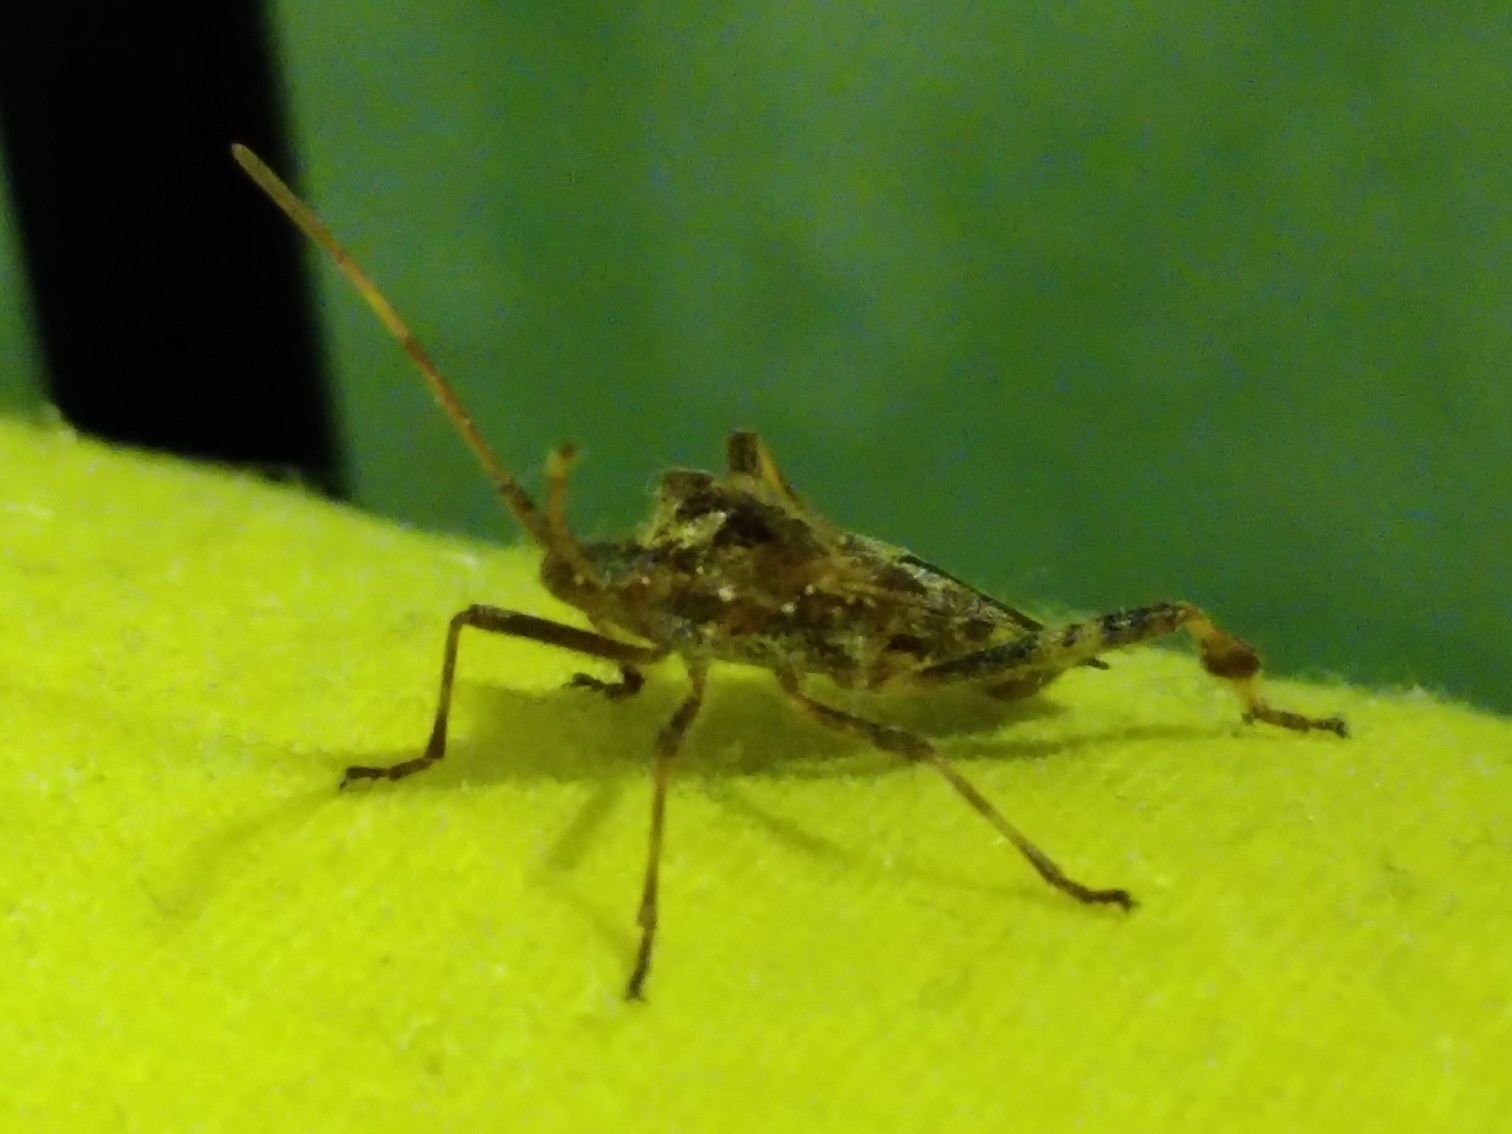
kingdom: Animalia
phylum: Arthropoda
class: Insecta
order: Hemiptera
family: Coreidae
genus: Leptoglossus
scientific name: Leptoglossus occidentalis
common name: Western conifer-seed bug
